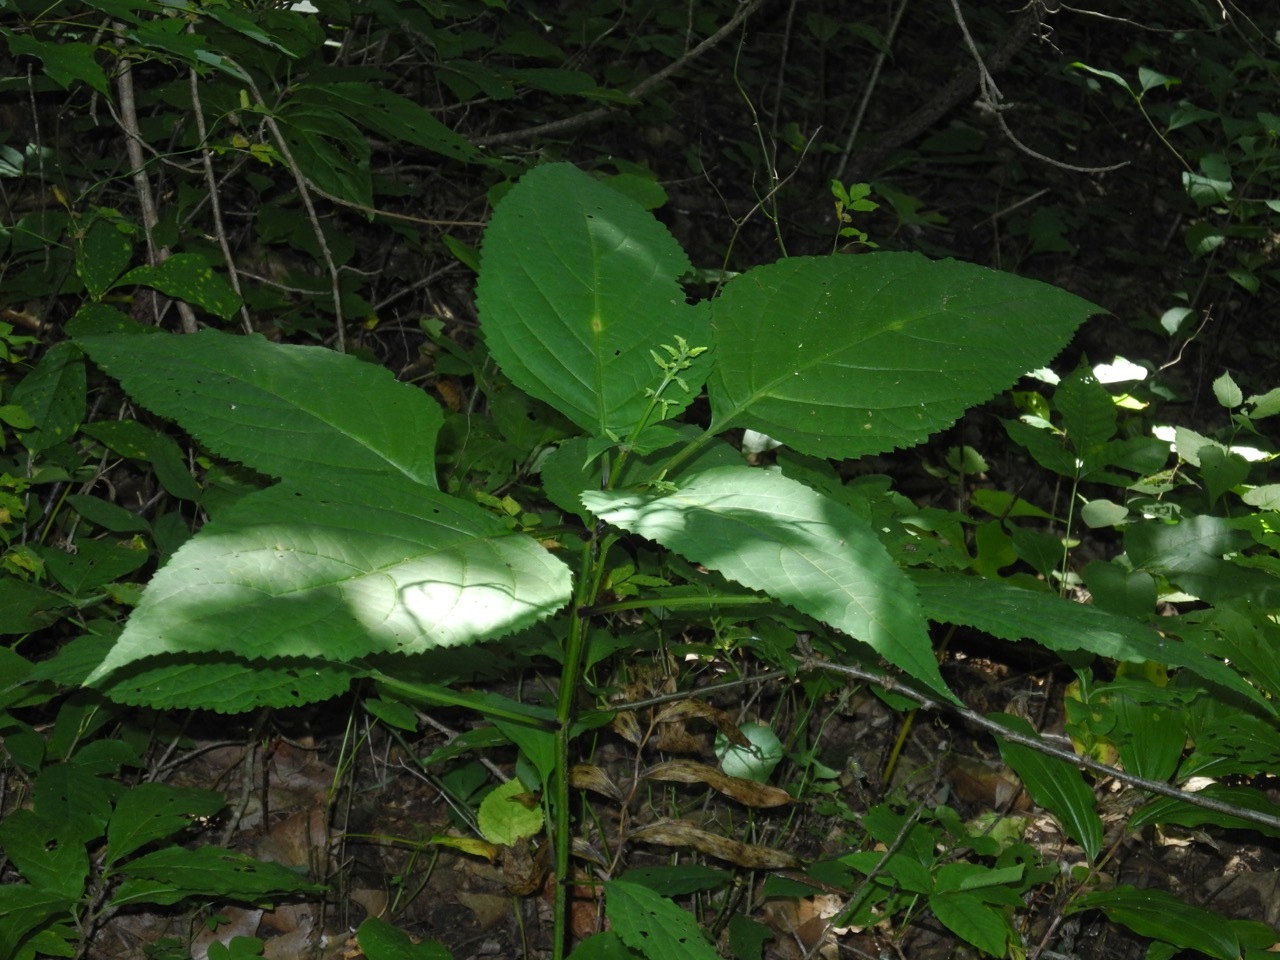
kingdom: Plantae
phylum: Tracheophyta
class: Magnoliopsida
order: Lamiales
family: Lamiaceae
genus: Collinsonia
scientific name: Collinsonia canadensis
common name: Northern horsebalm
